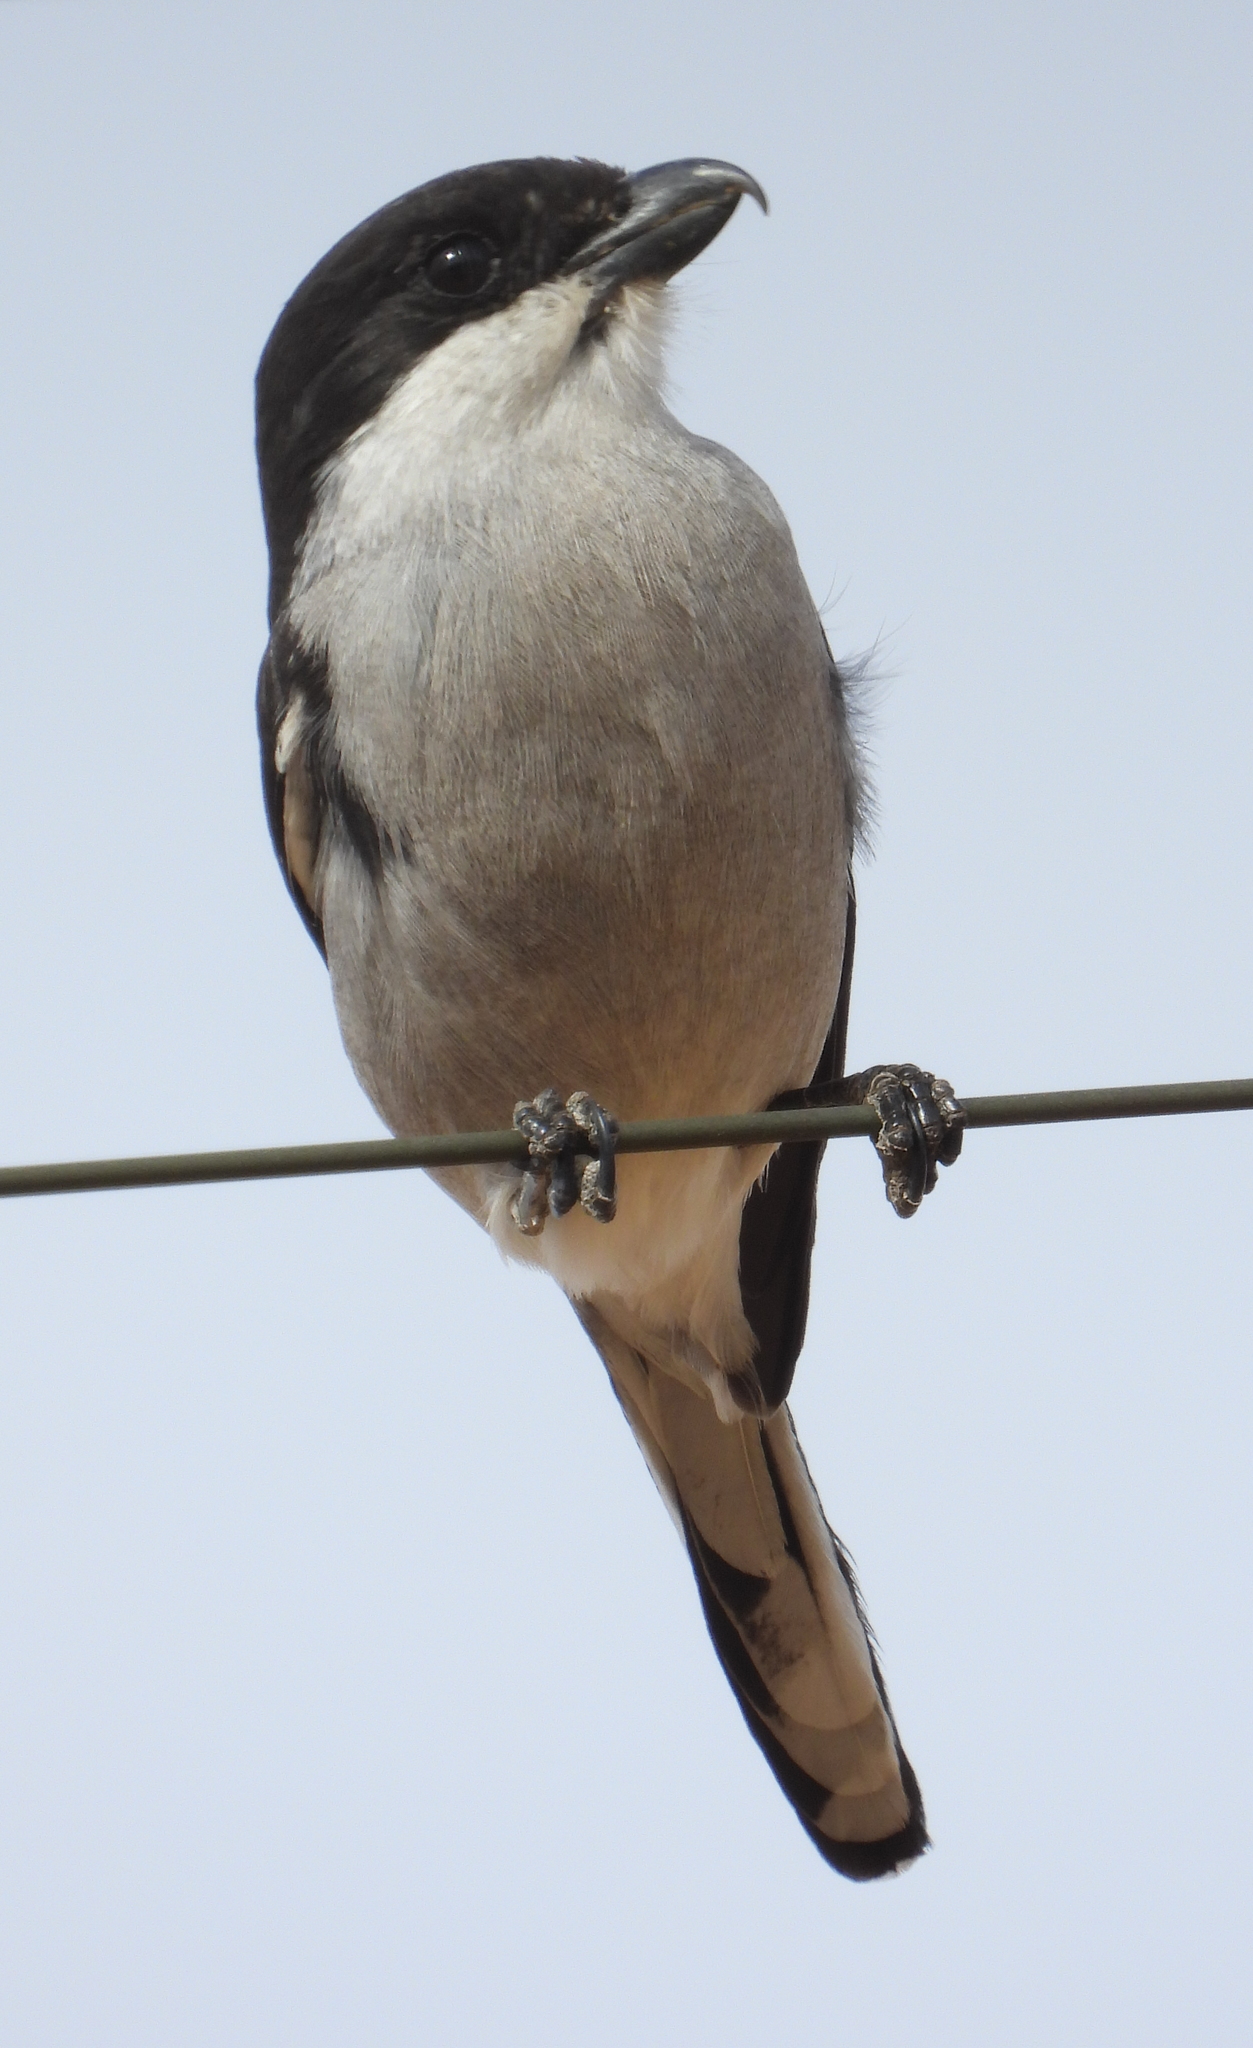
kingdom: Animalia
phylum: Chordata
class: Aves
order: Passeriformes
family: Laniidae
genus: Lanius
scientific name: Lanius collaris
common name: Southern fiscal
